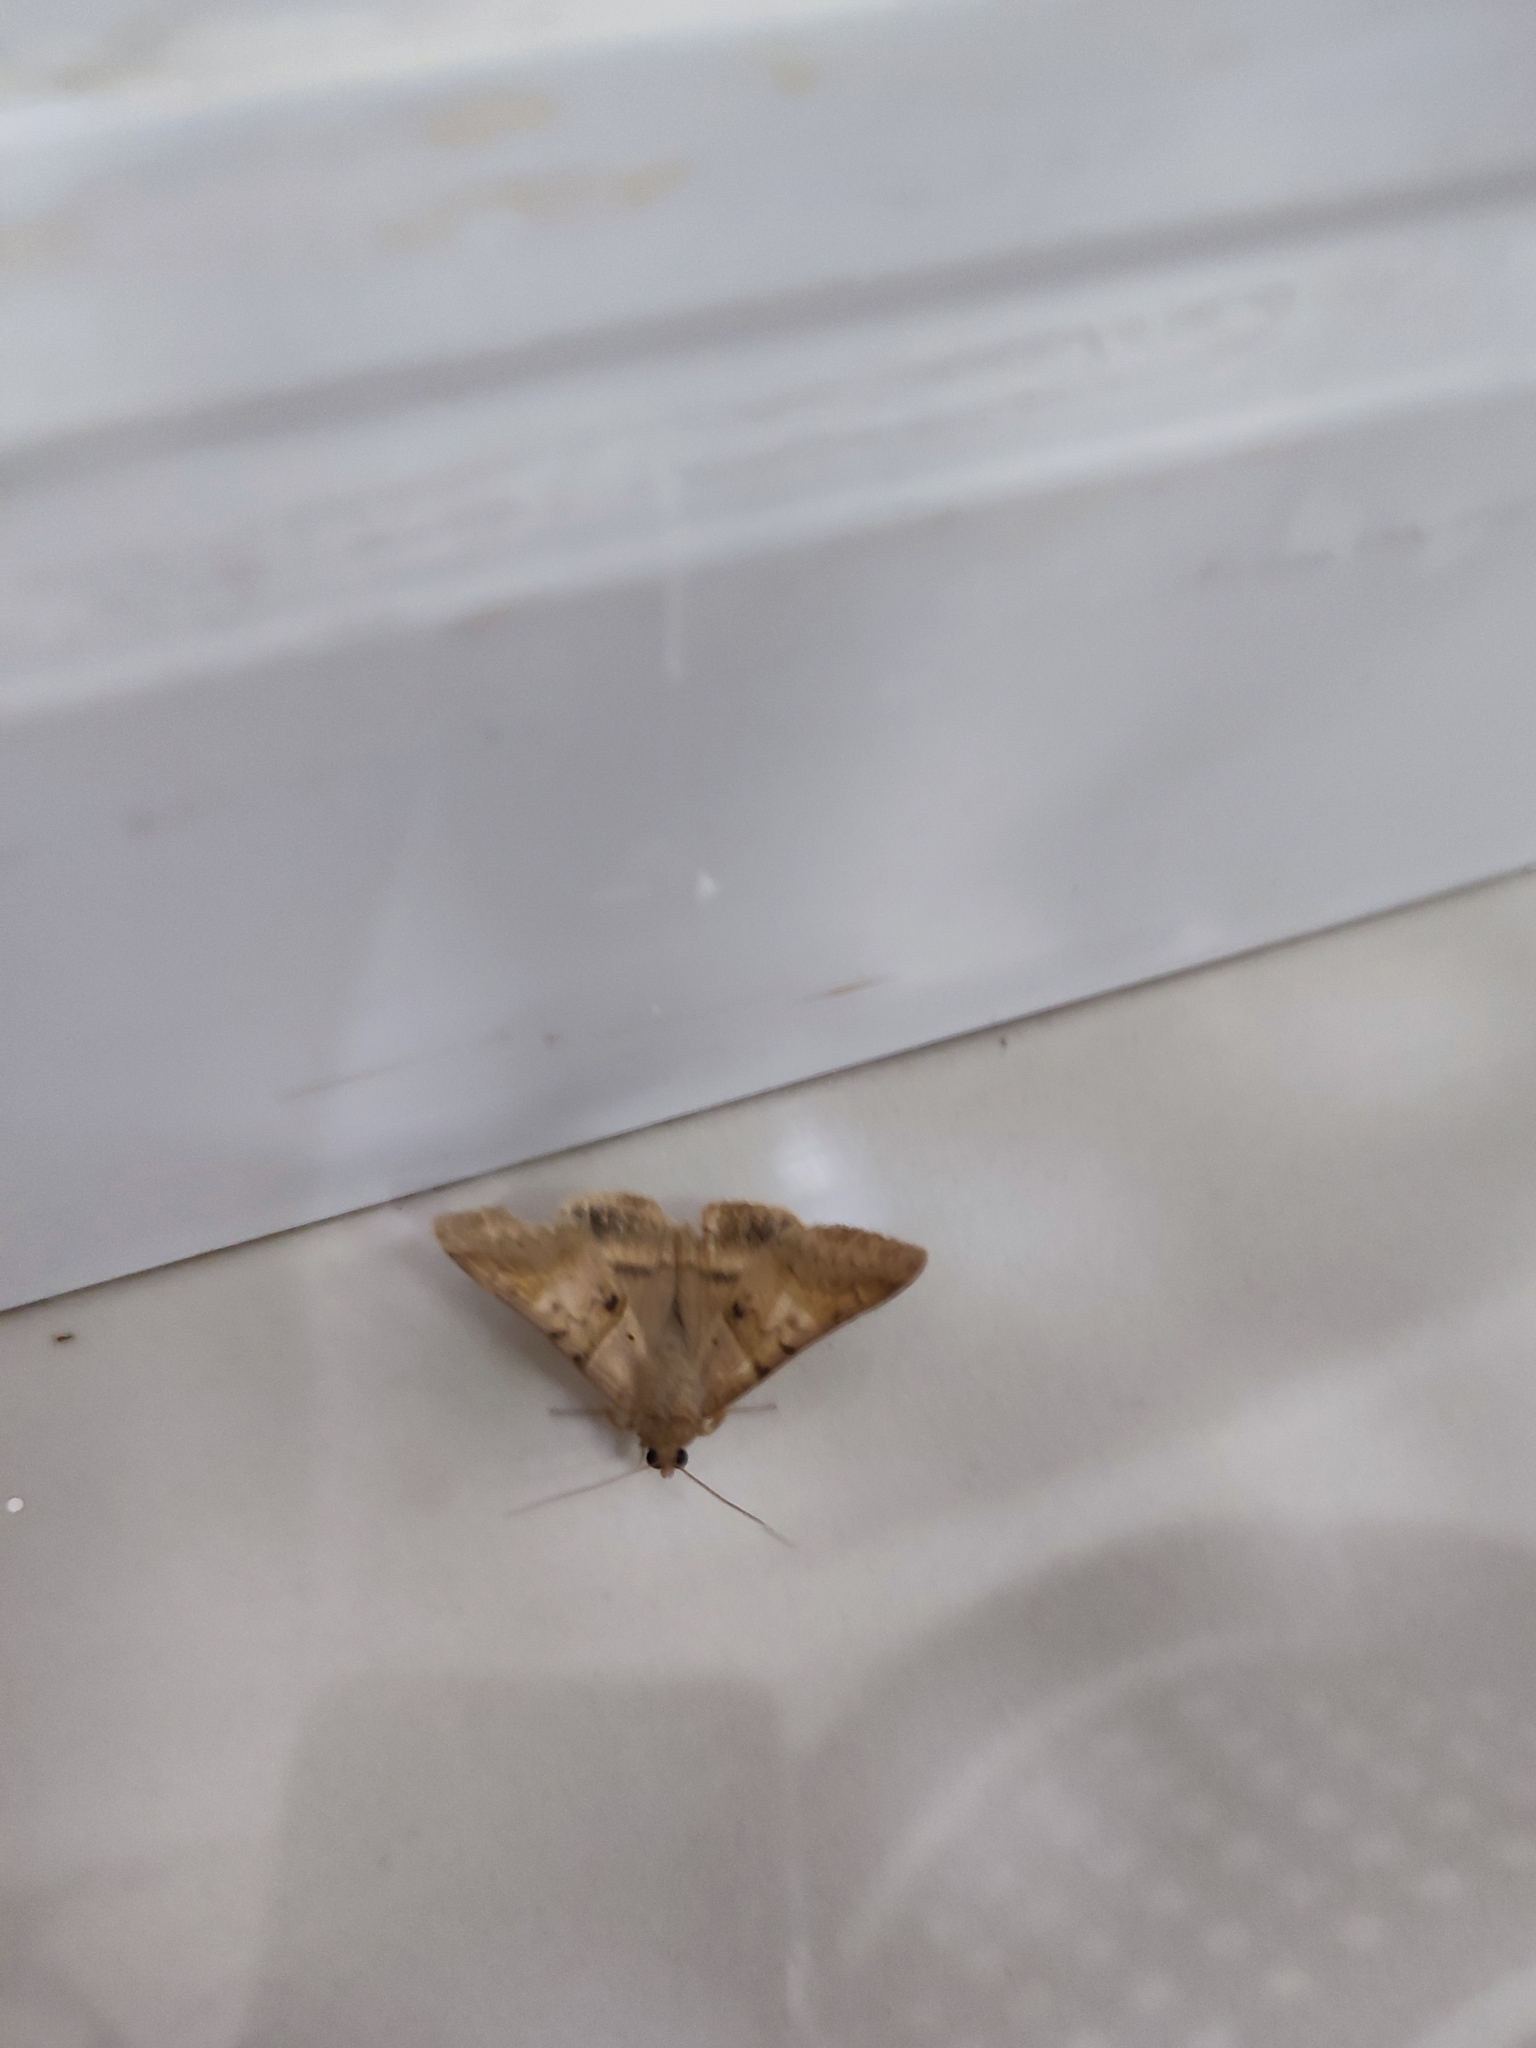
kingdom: Animalia
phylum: Arthropoda
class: Insecta
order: Lepidoptera
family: Erebidae
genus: Mocis
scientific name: Mocis undata
